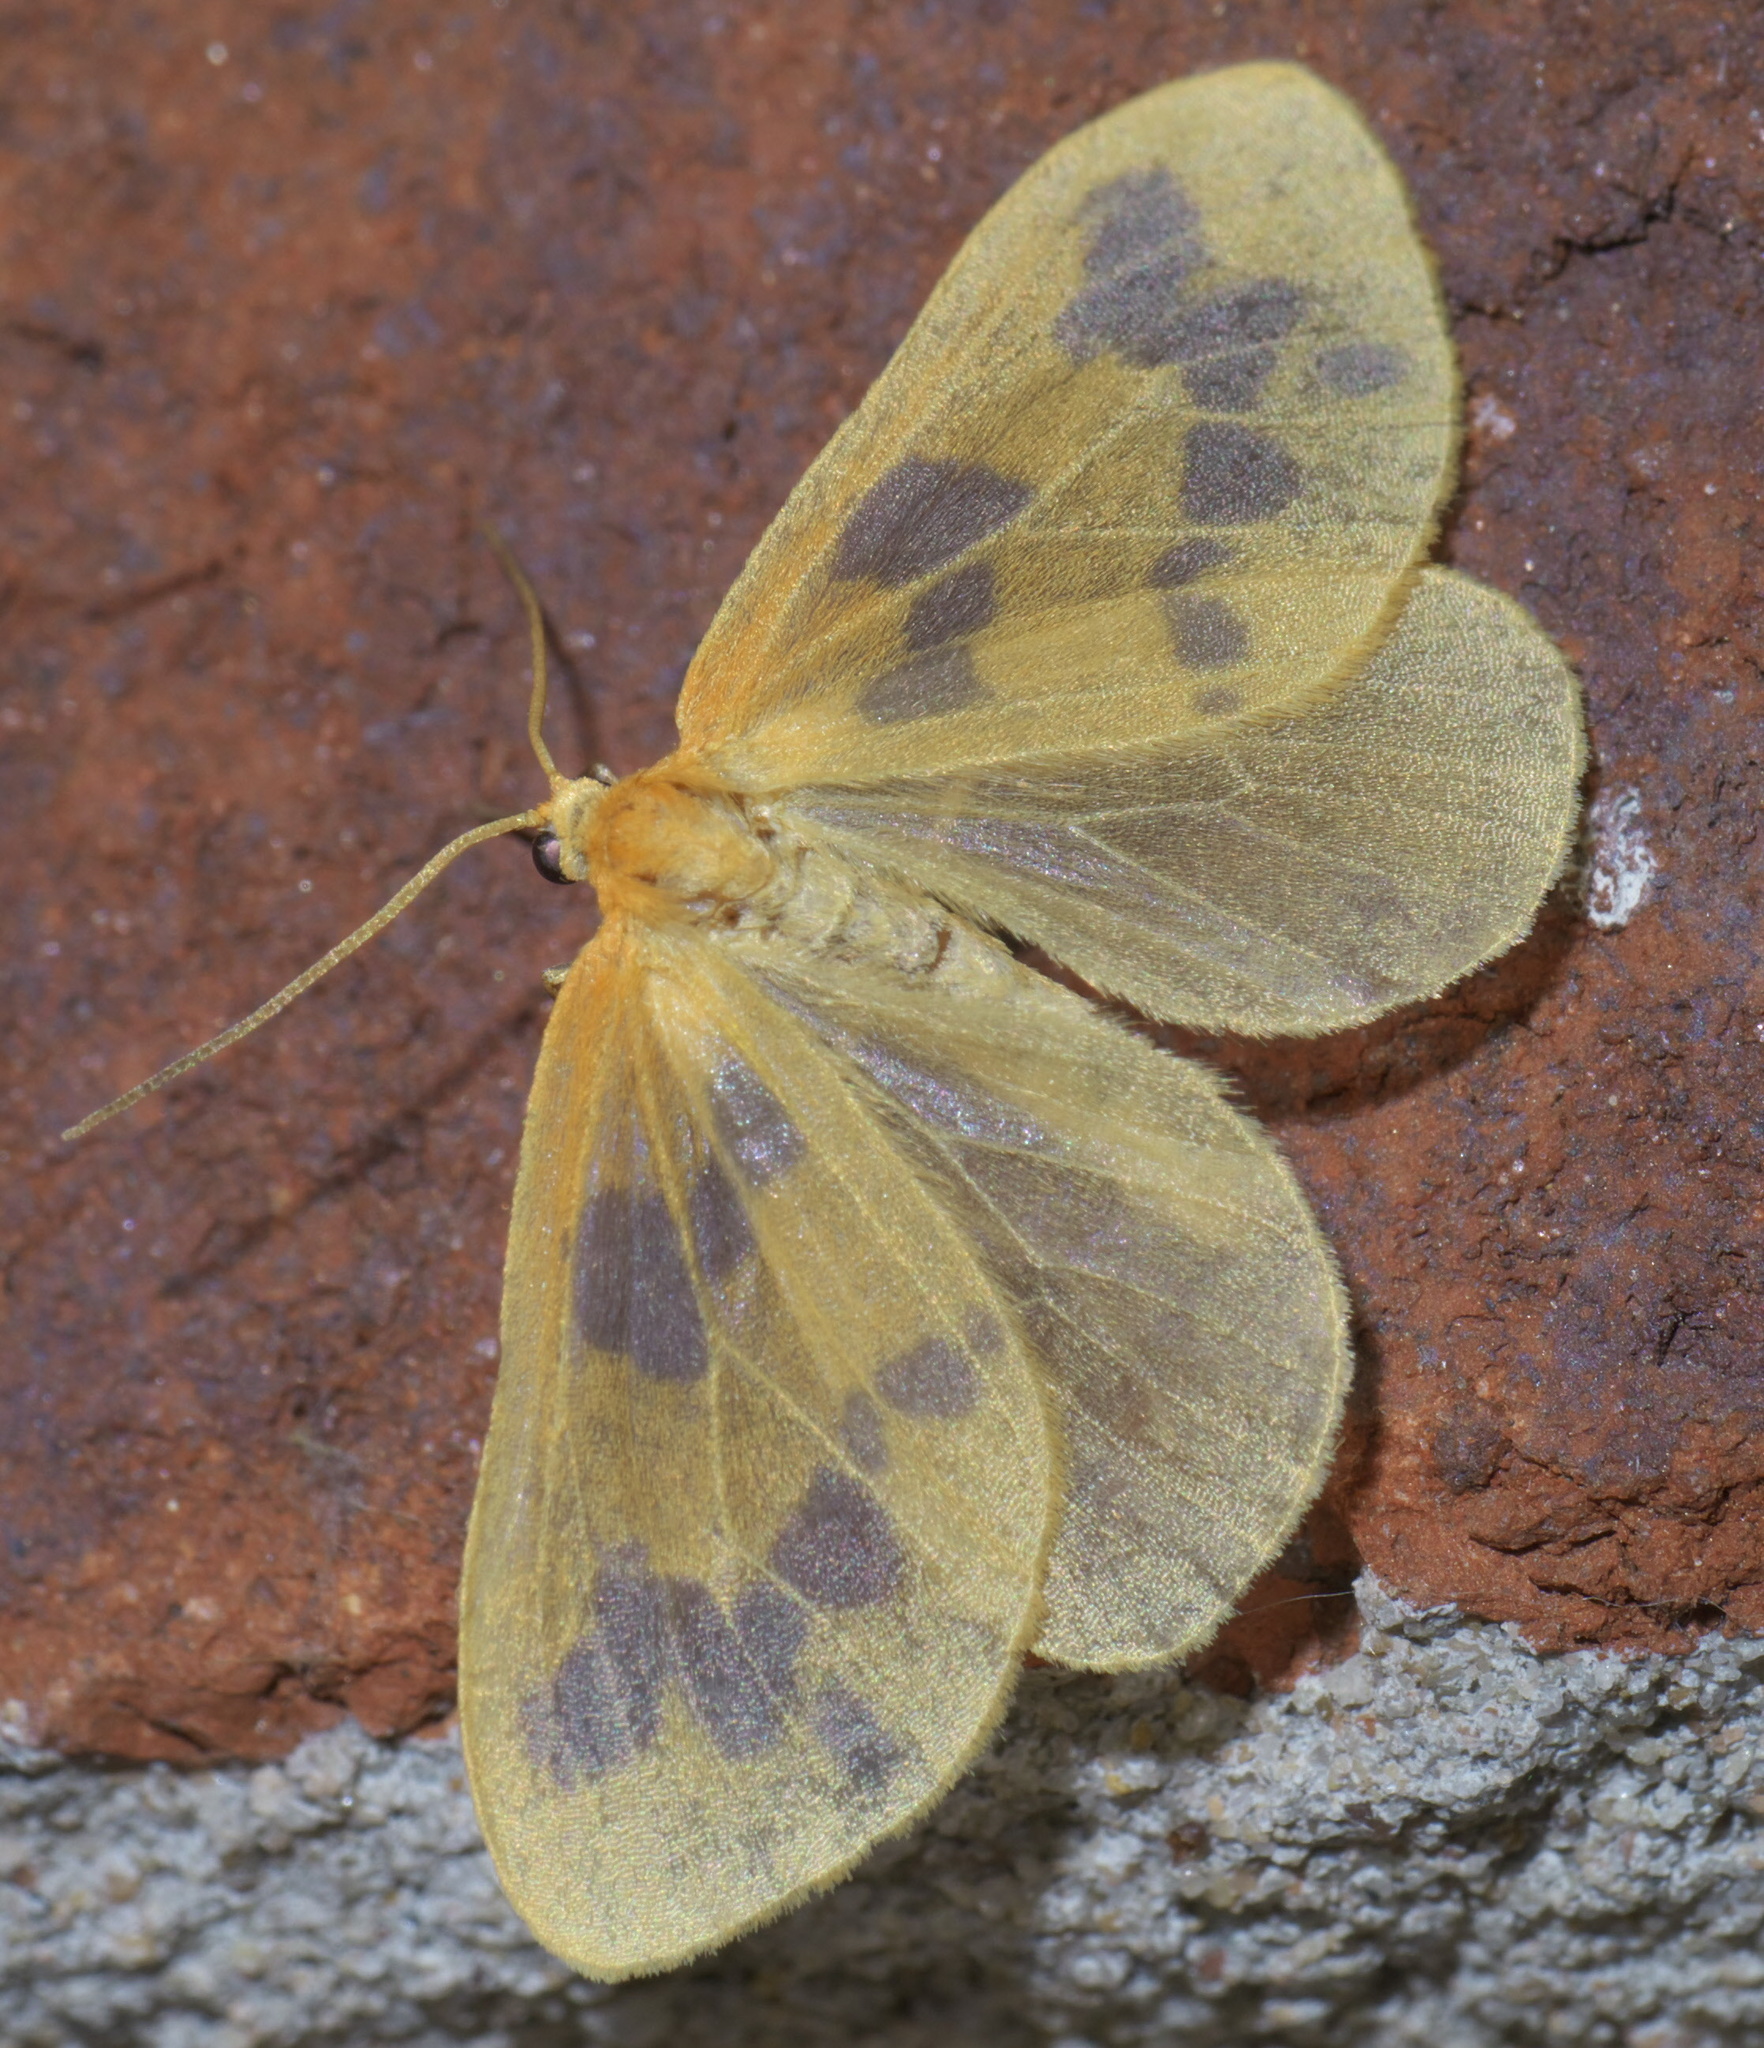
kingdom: Animalia
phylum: Arthropoda
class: Insecta
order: Lepidoptera
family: Geometridae
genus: Eubaphe
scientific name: Eubaphe mendica
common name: Beggar
